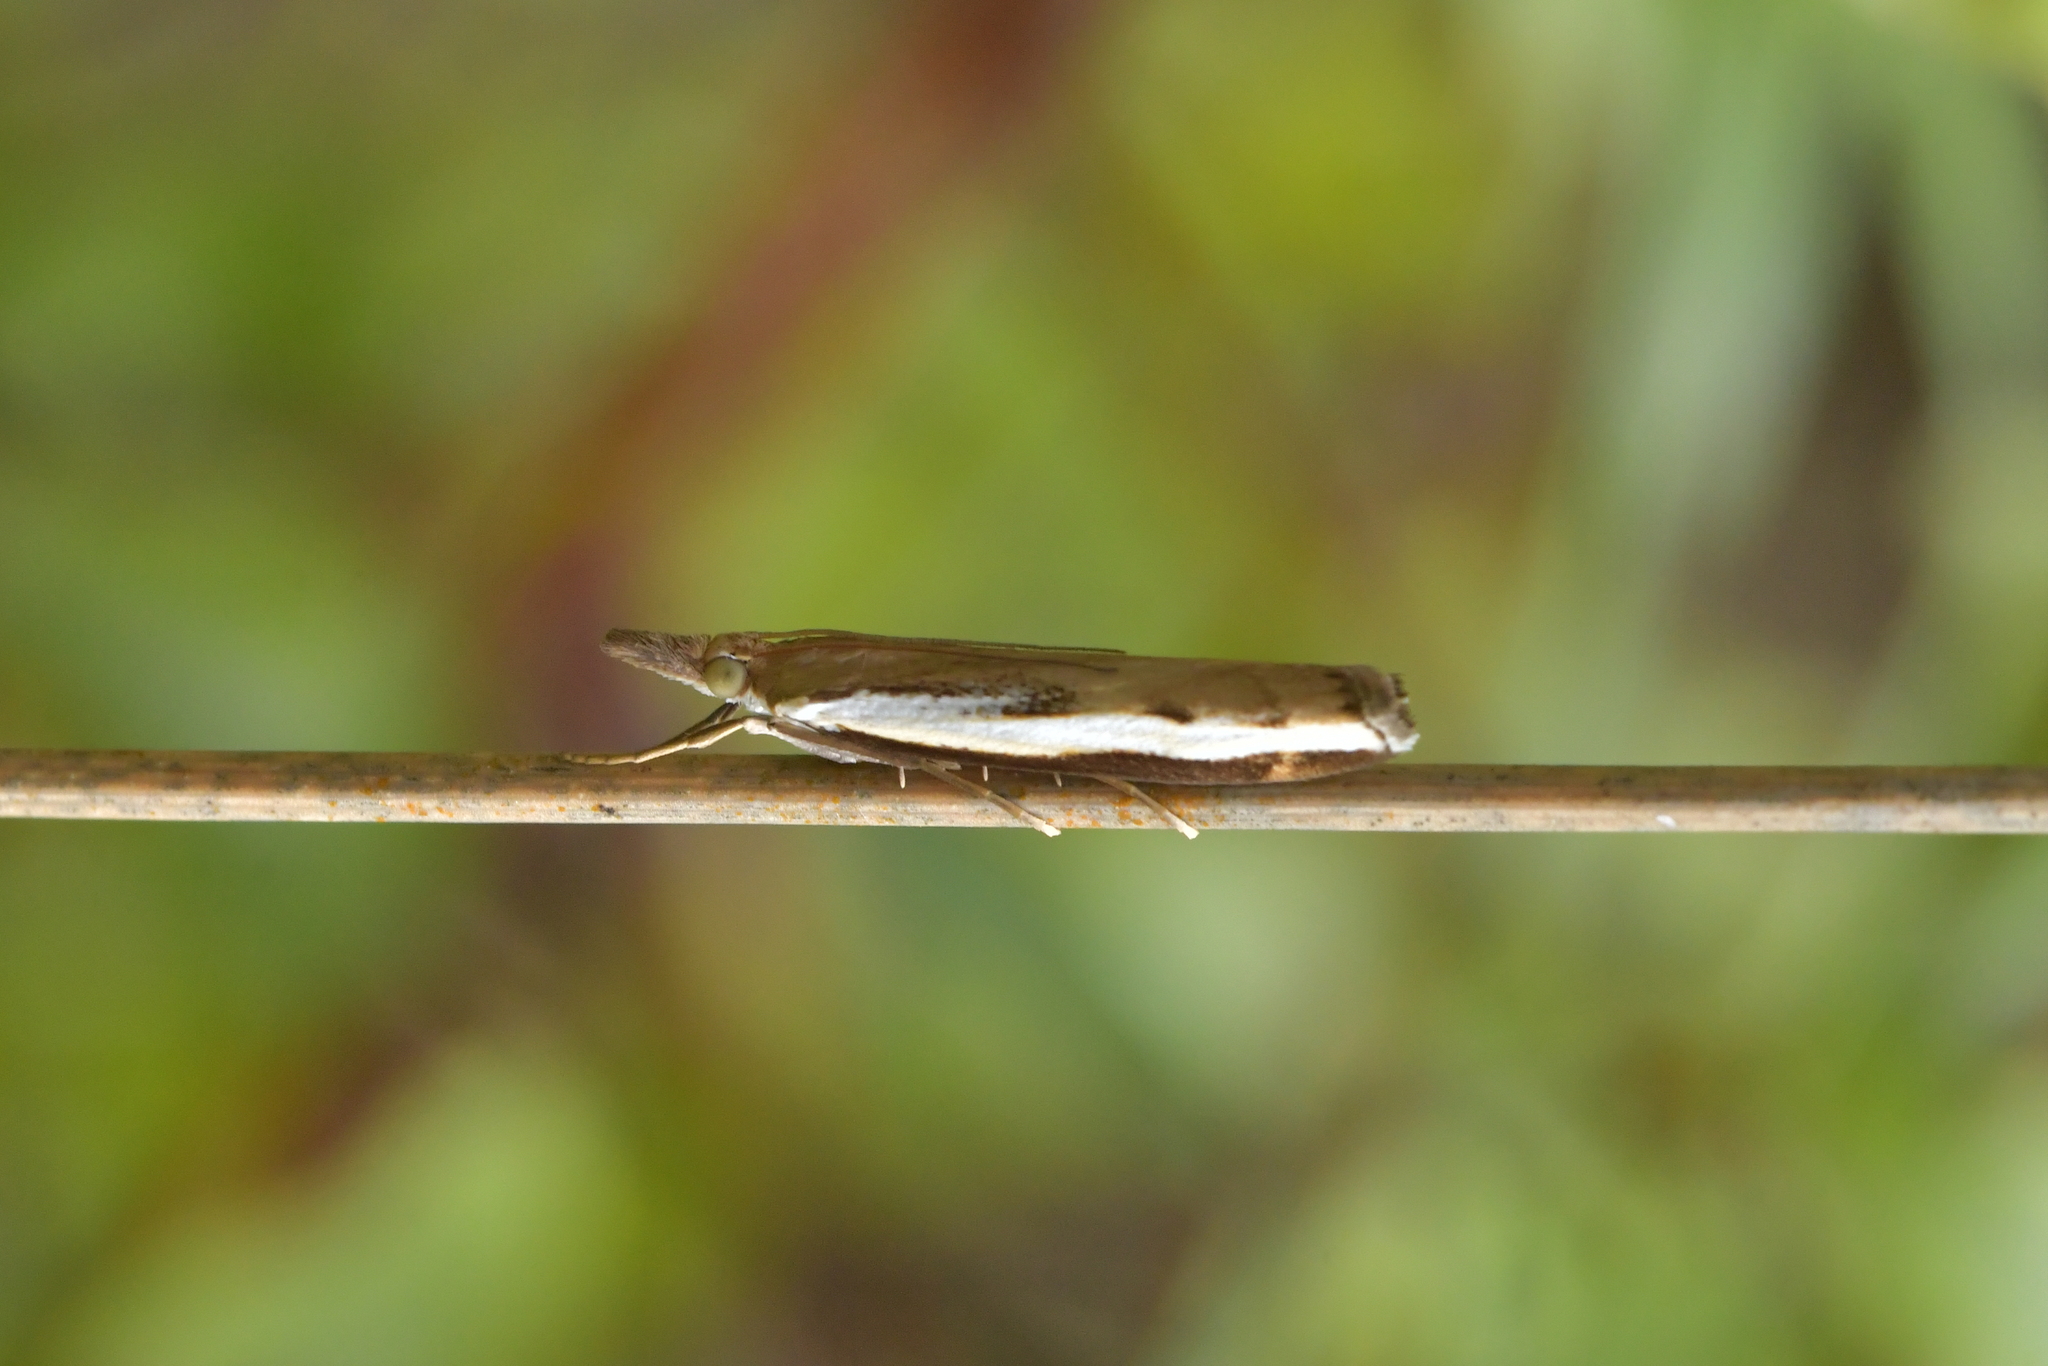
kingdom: Animalia
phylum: Arthropoda
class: Insecta
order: Lepidoptera
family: Crambidae
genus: Orocrambus
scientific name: Orocrambus flexuosellus
